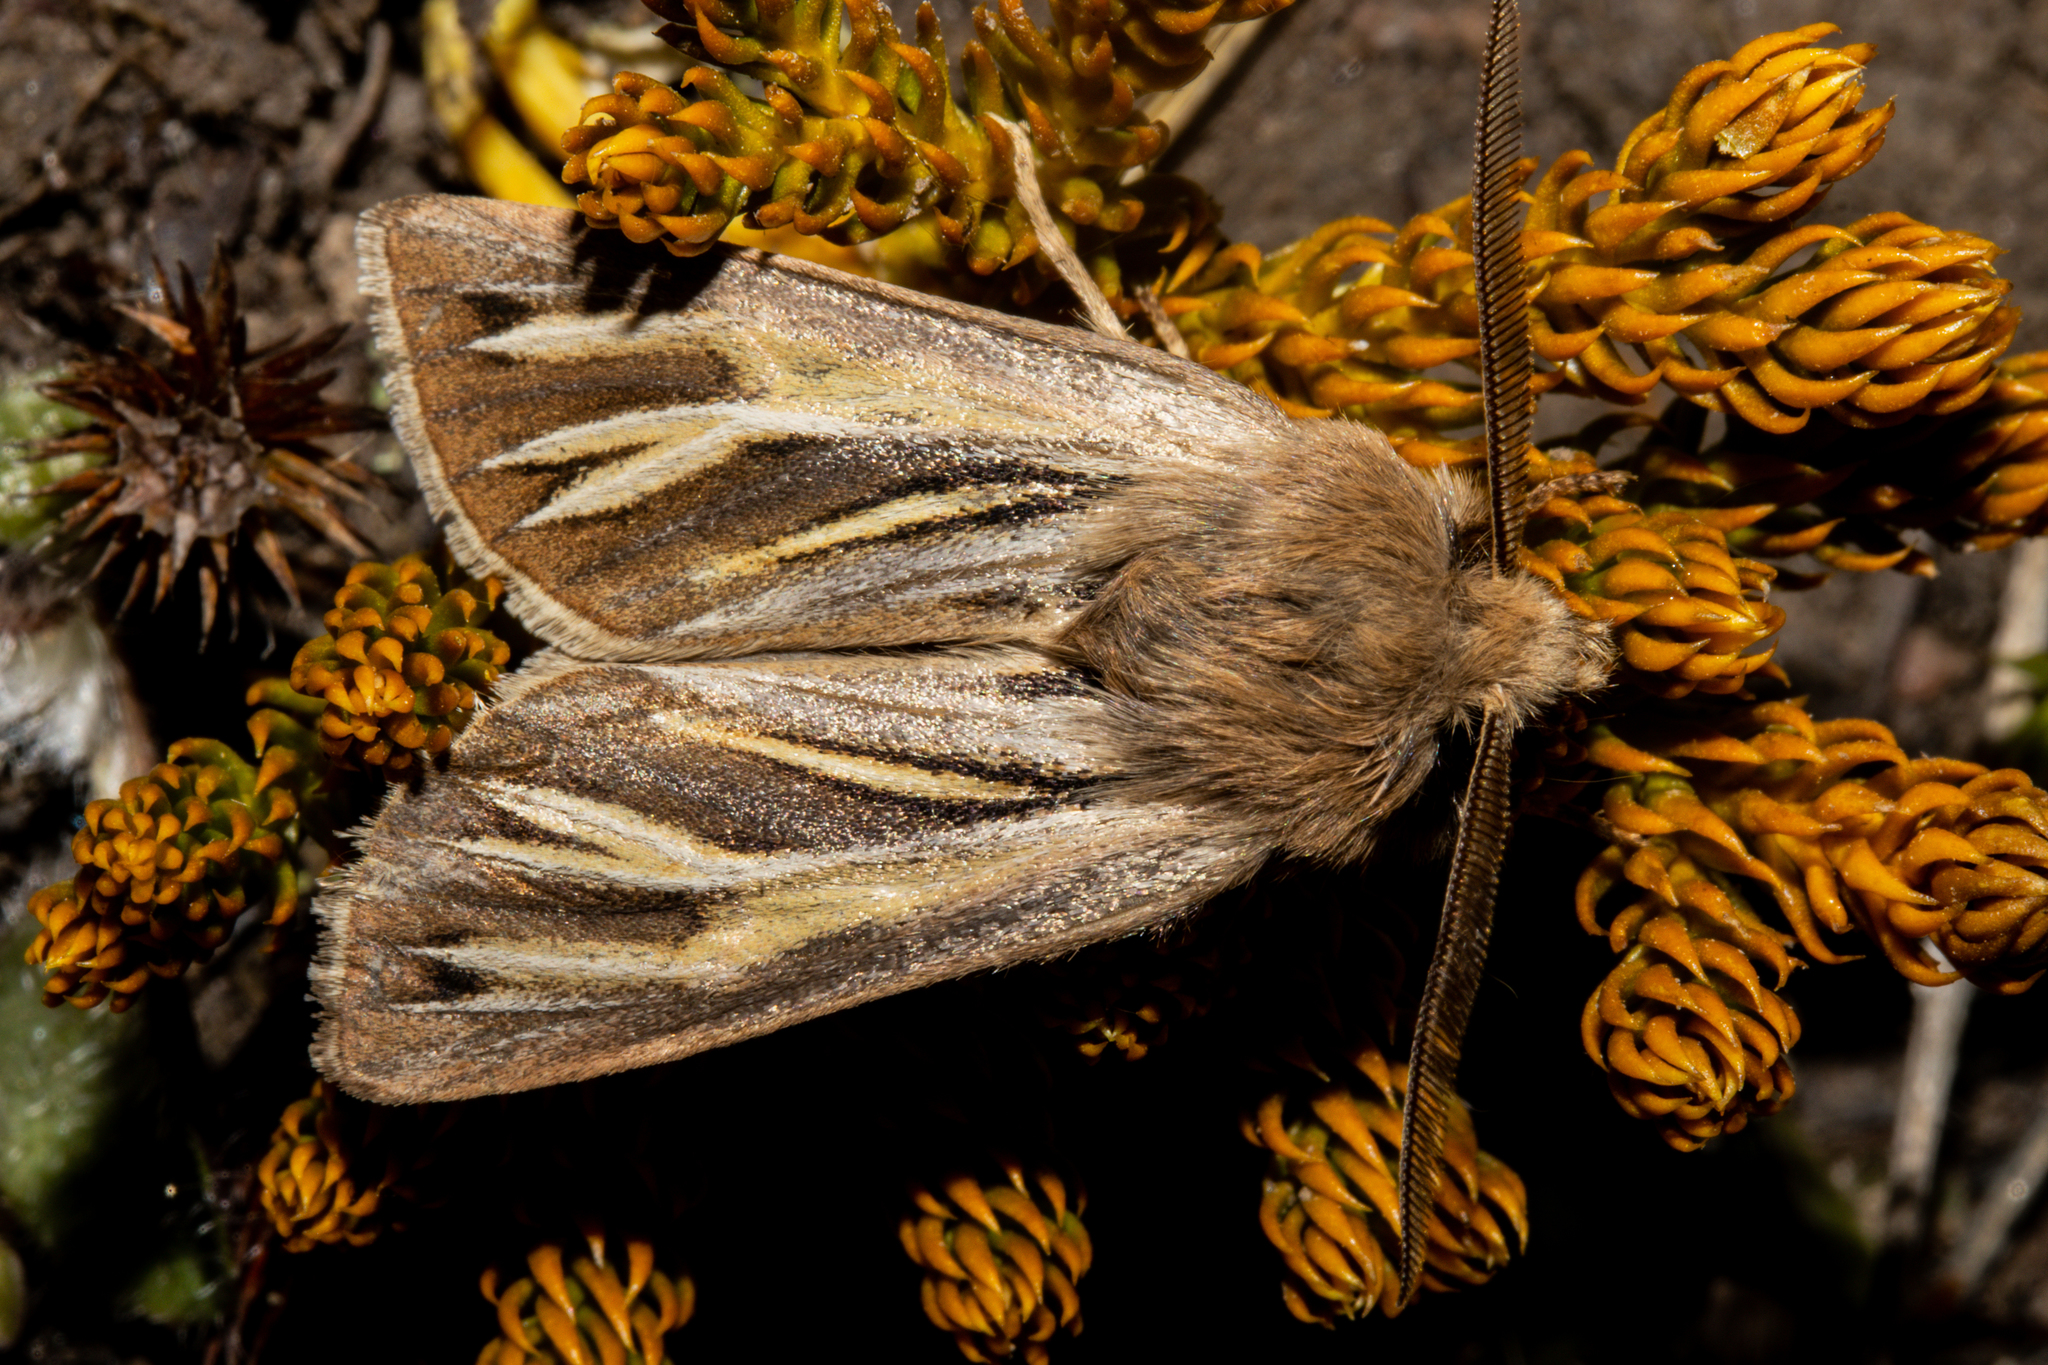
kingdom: Animalia
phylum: Arthropoda
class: Insecta
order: Lepidoptera
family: Noctuidae
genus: Ichneutica
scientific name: Ichneutica caraunias
